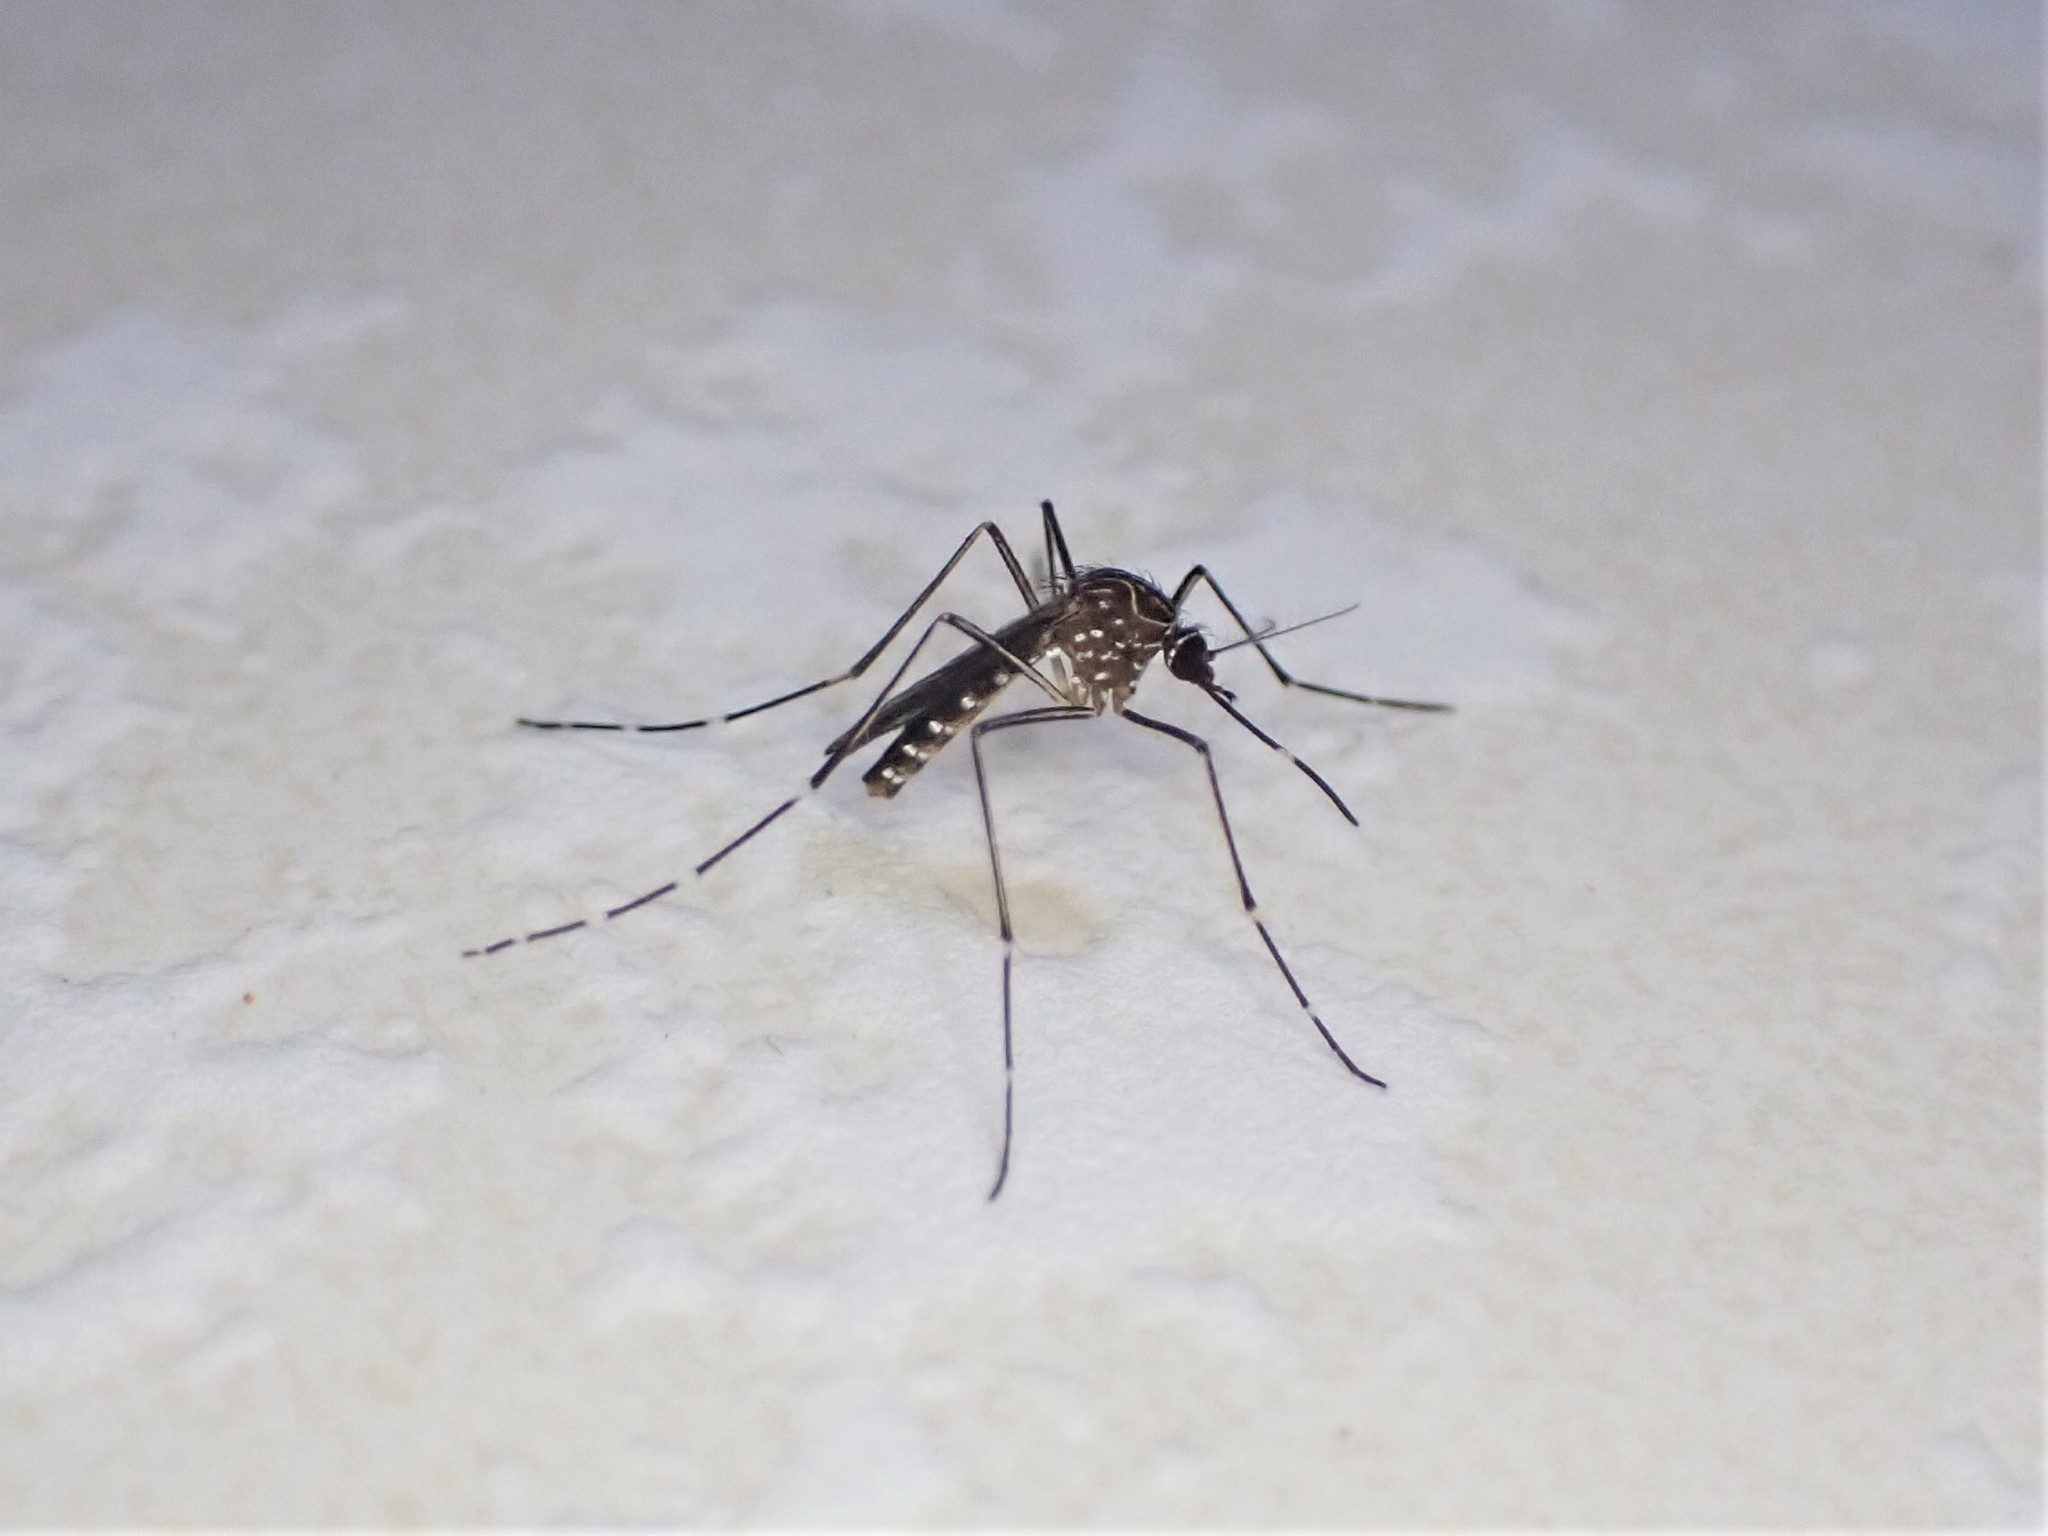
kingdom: Animalia
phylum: Arthropoda
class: Insecta
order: Diptera
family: Culicidae
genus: Aedes
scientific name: Aedes notoscriptus
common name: Australian backyard mosquito
